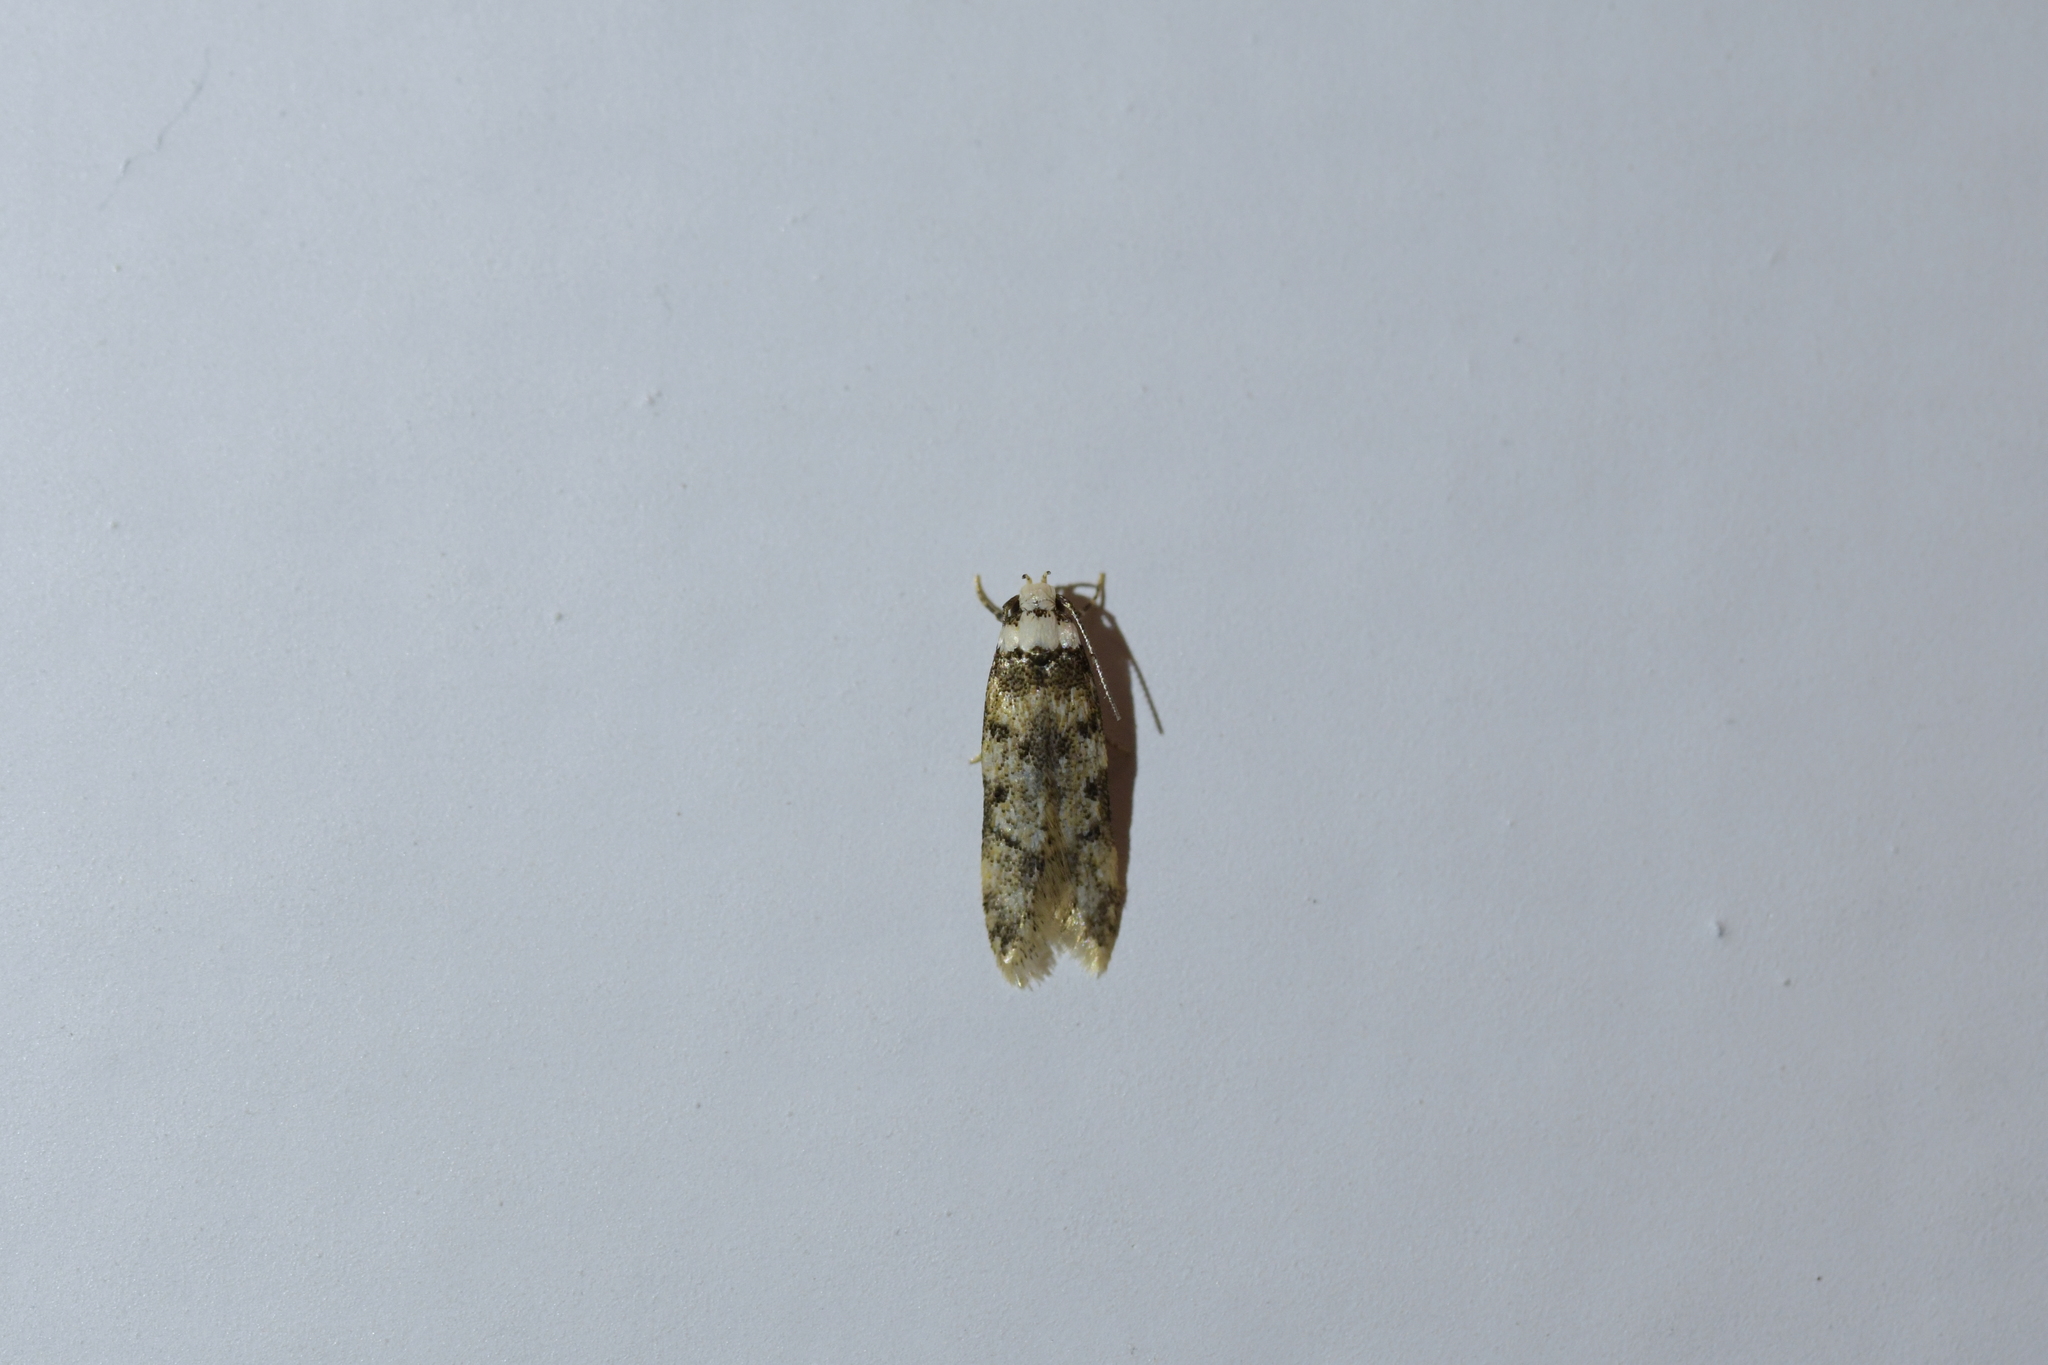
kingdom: Animalia
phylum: Arthropoda
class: Insecta
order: Lepidoptera
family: Oecophoridae
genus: Endrosis
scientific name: Endrosis sarcitrella
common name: White-shouldered house moth
